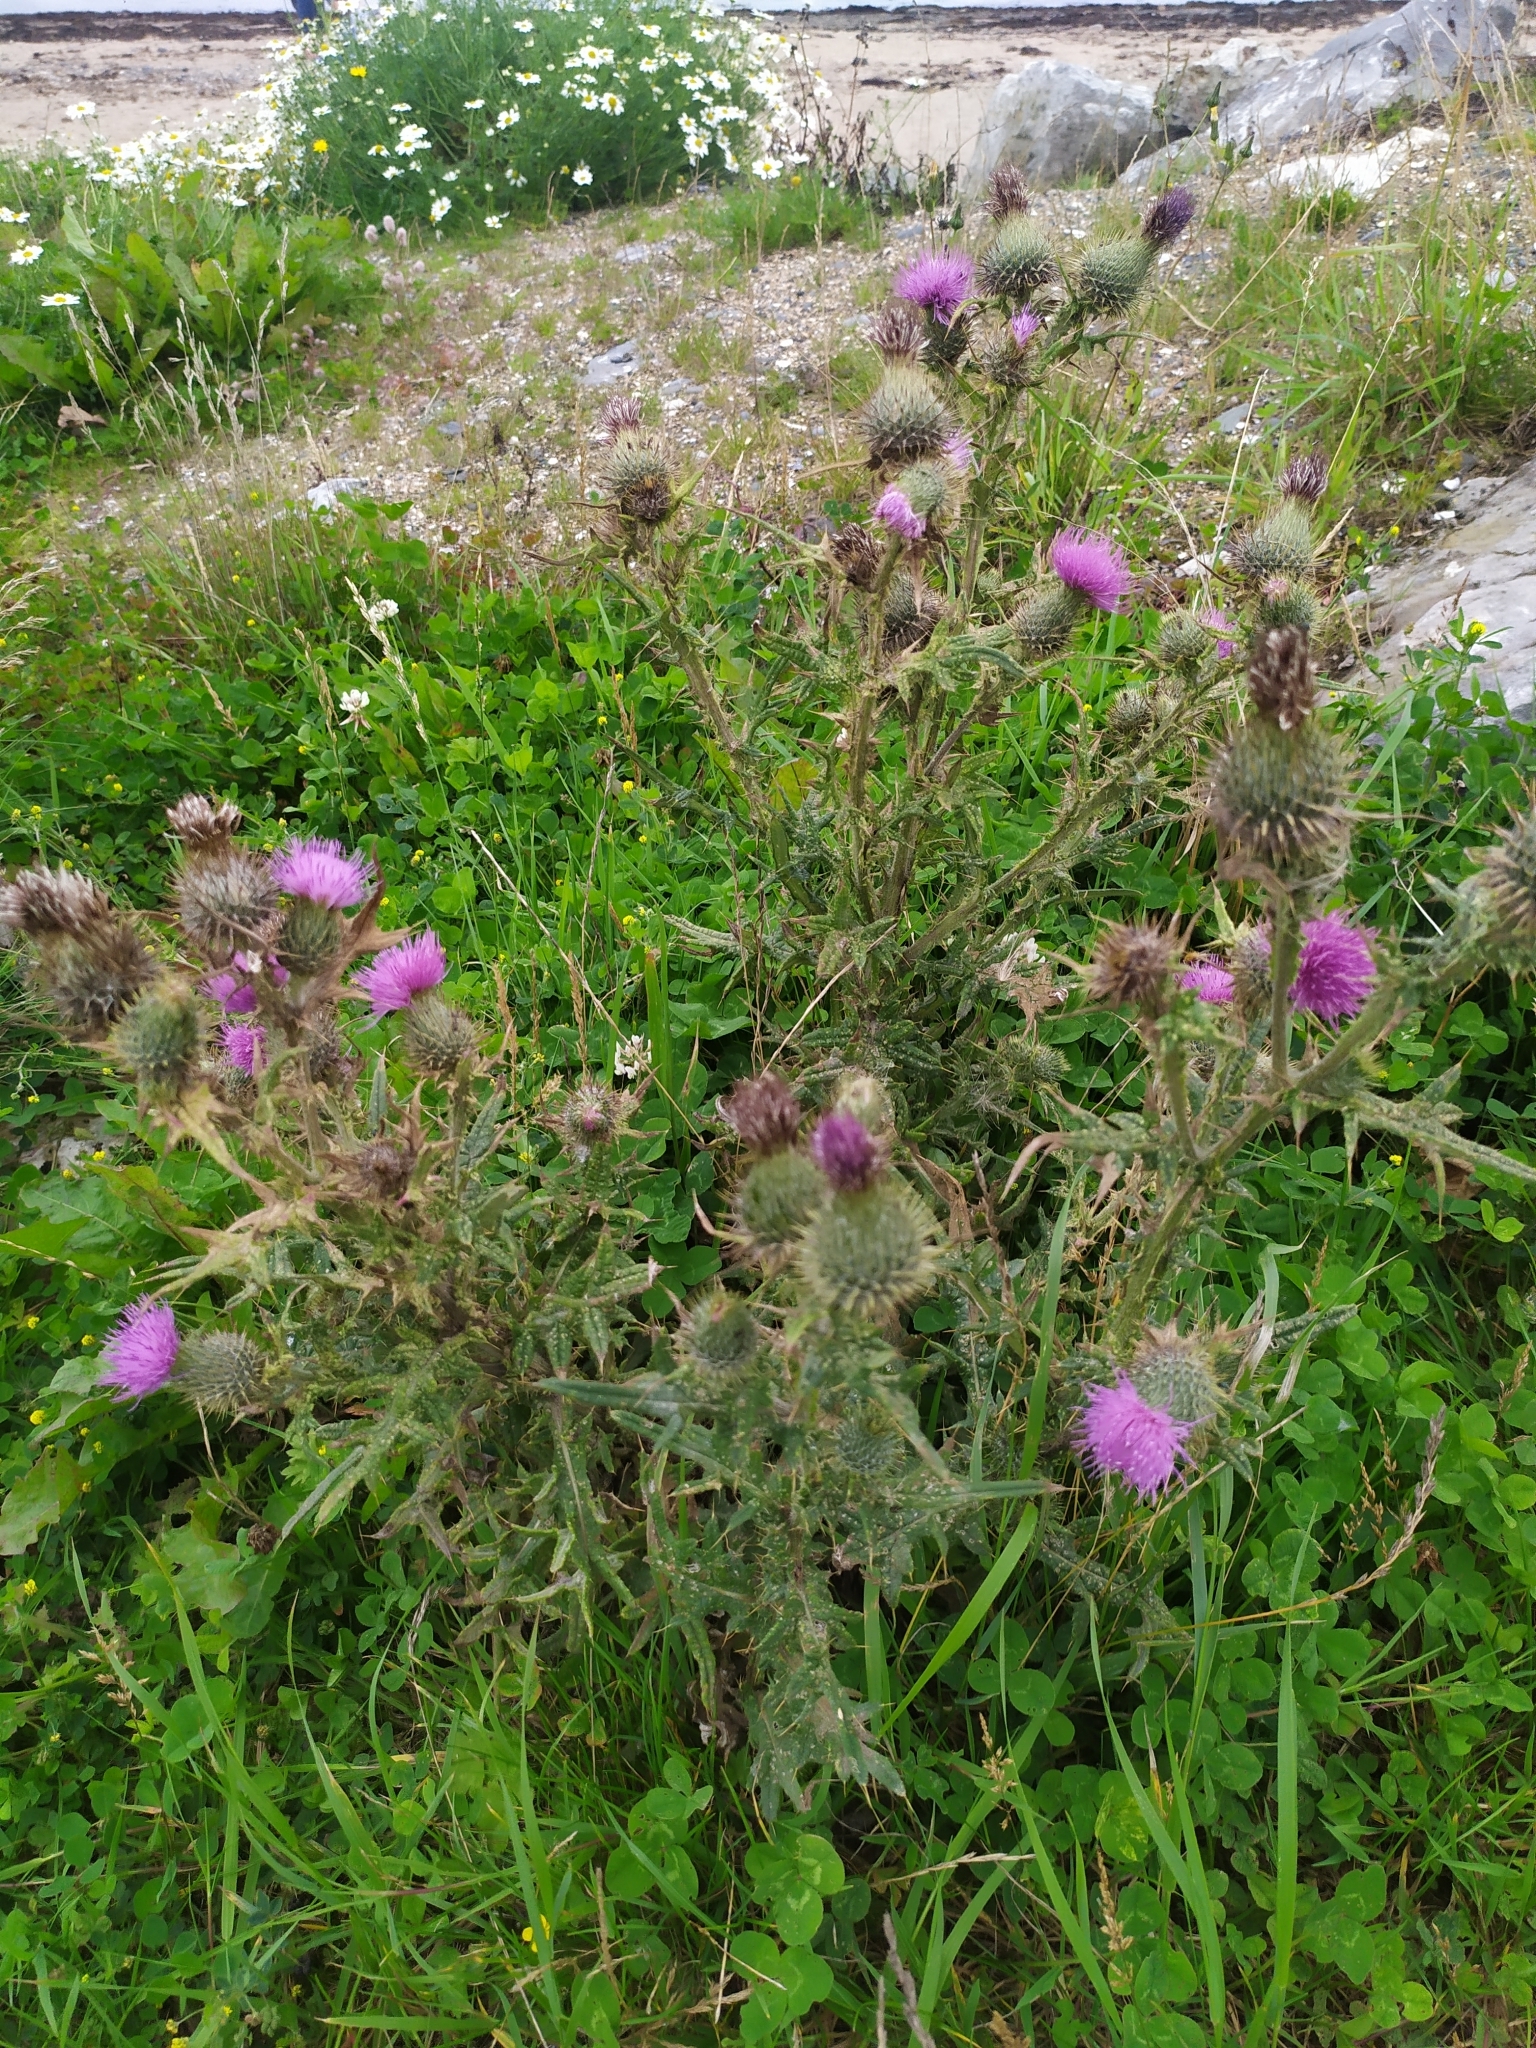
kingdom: Plantae
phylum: Tracheophyta
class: Magnoliopsida
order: Asterales
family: Asteraceae
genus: Cirsium
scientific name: Cirsium vulgare
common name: Bull thistle
